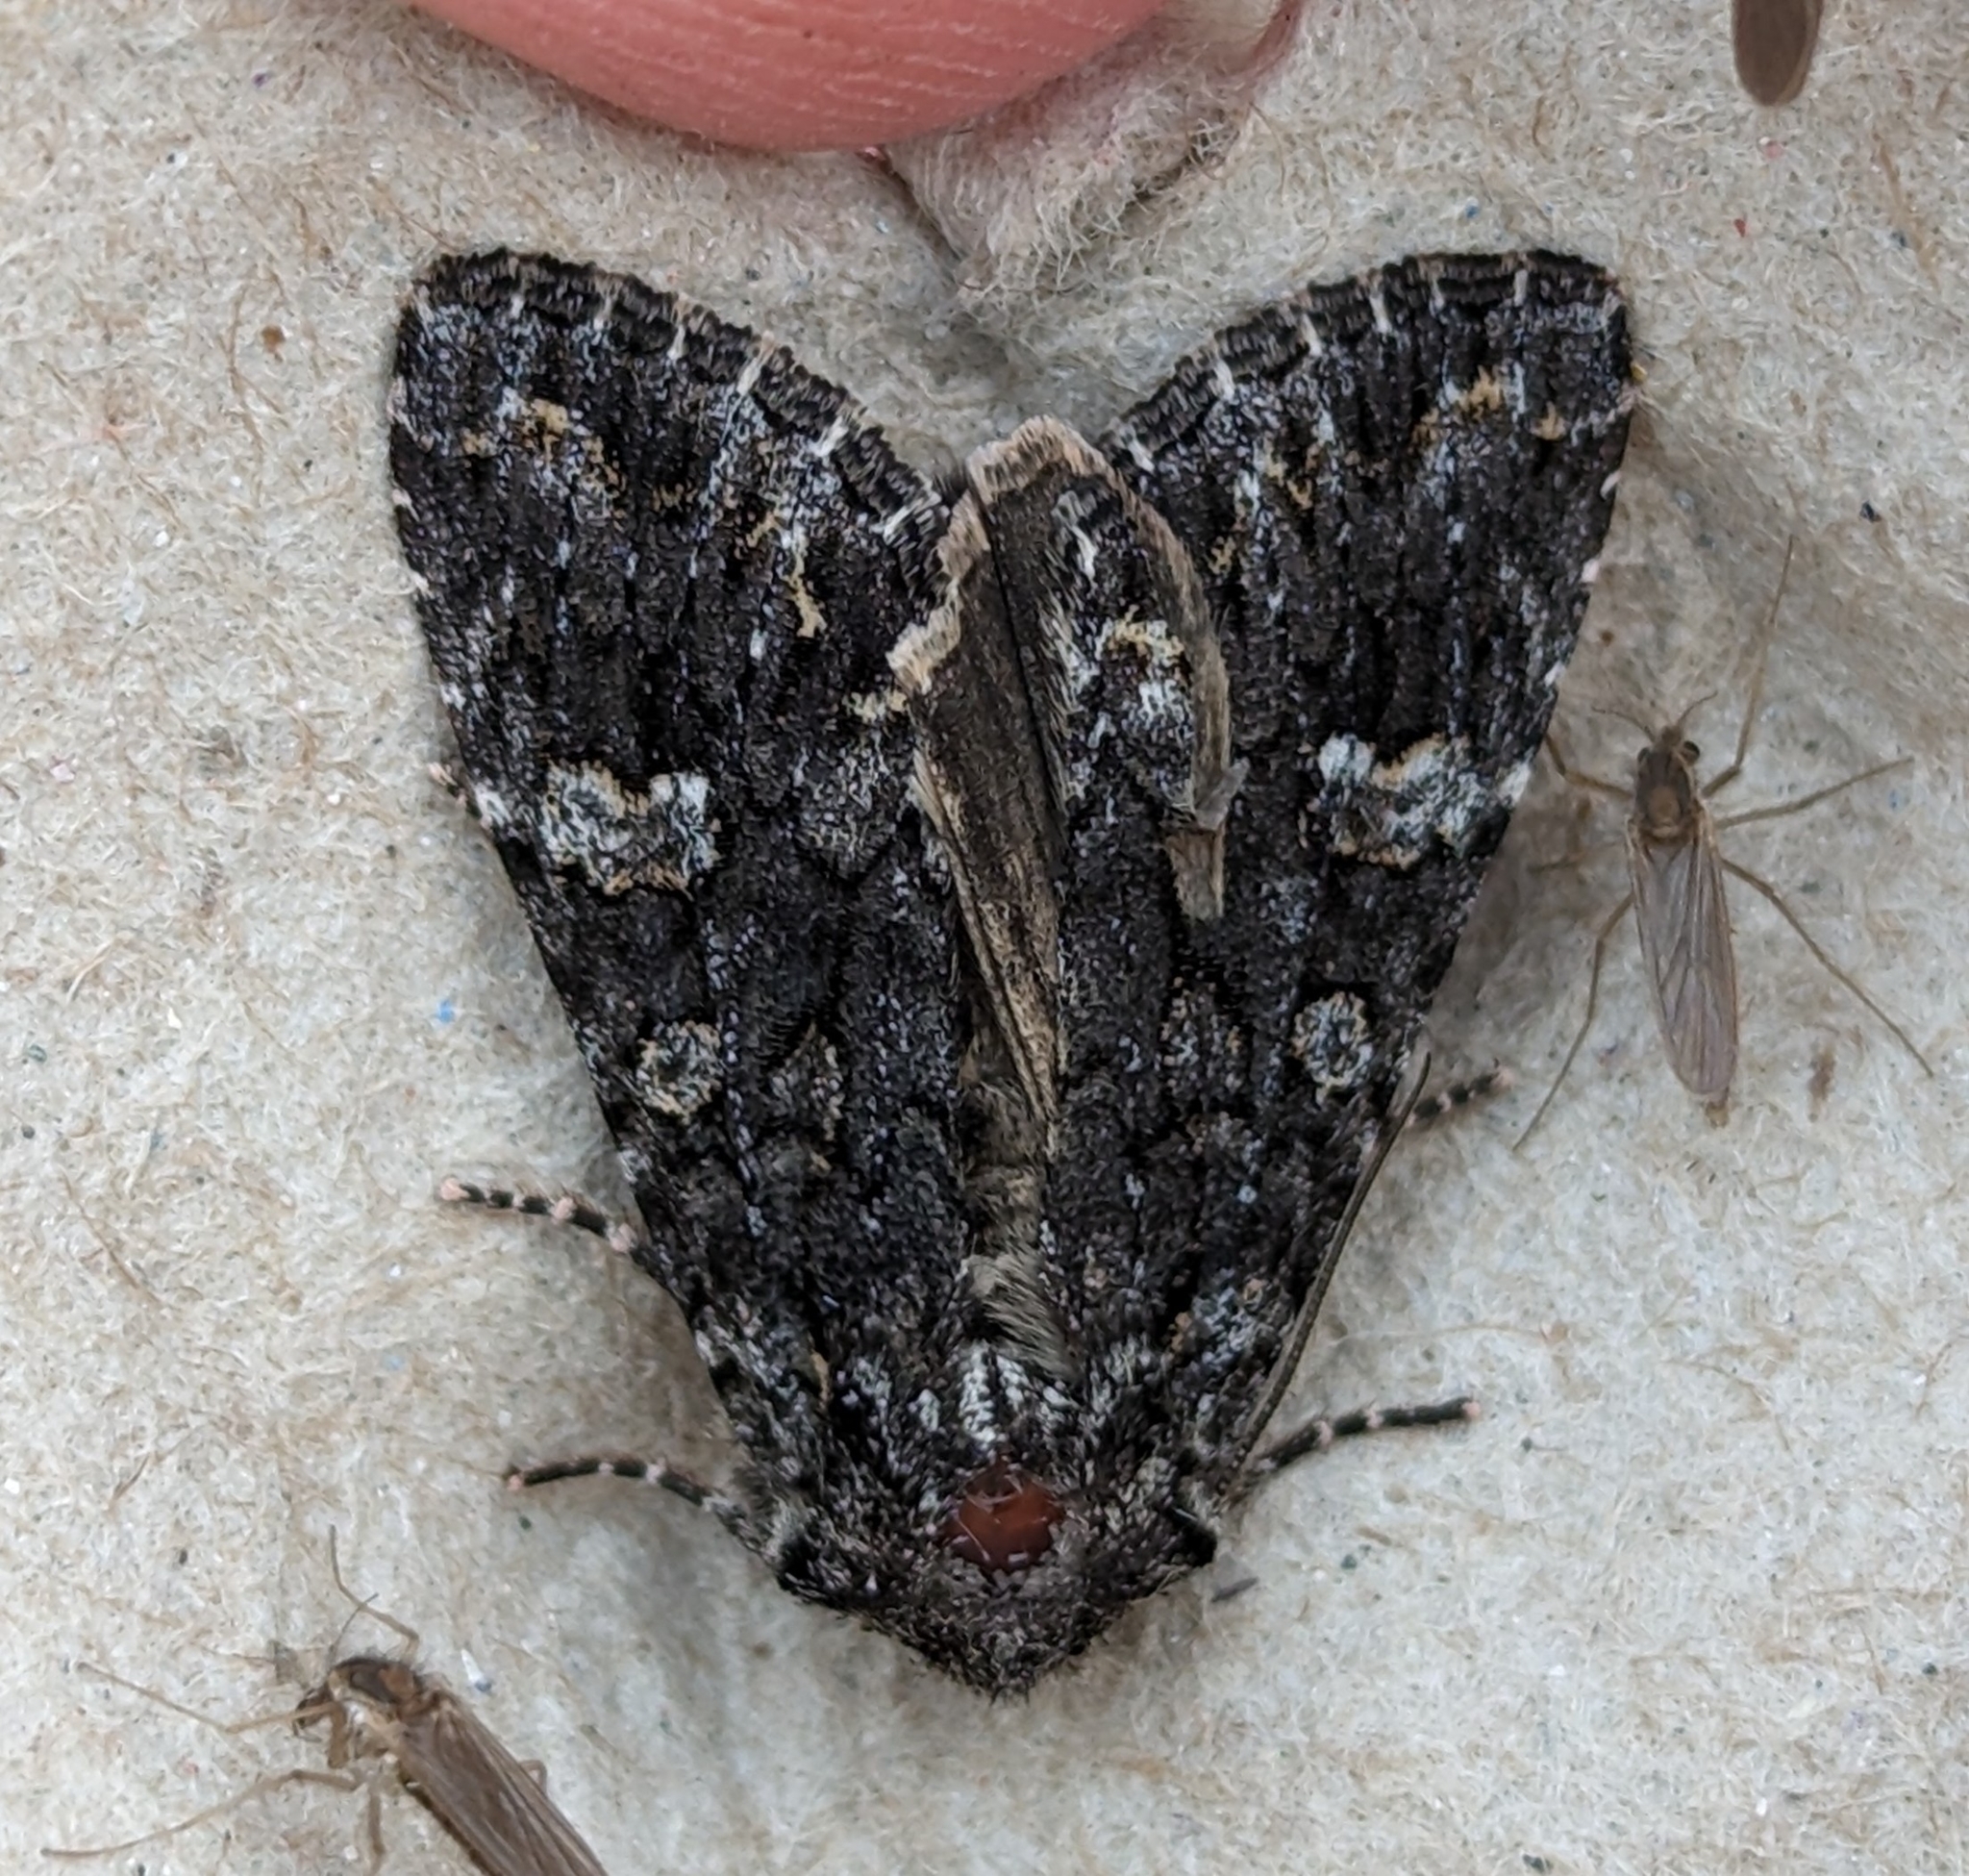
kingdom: Animalia
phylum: Arthropoda
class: Insecta
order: Lepidoptera
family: Noctuidae
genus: Papestra
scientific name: Papestra cristifera
